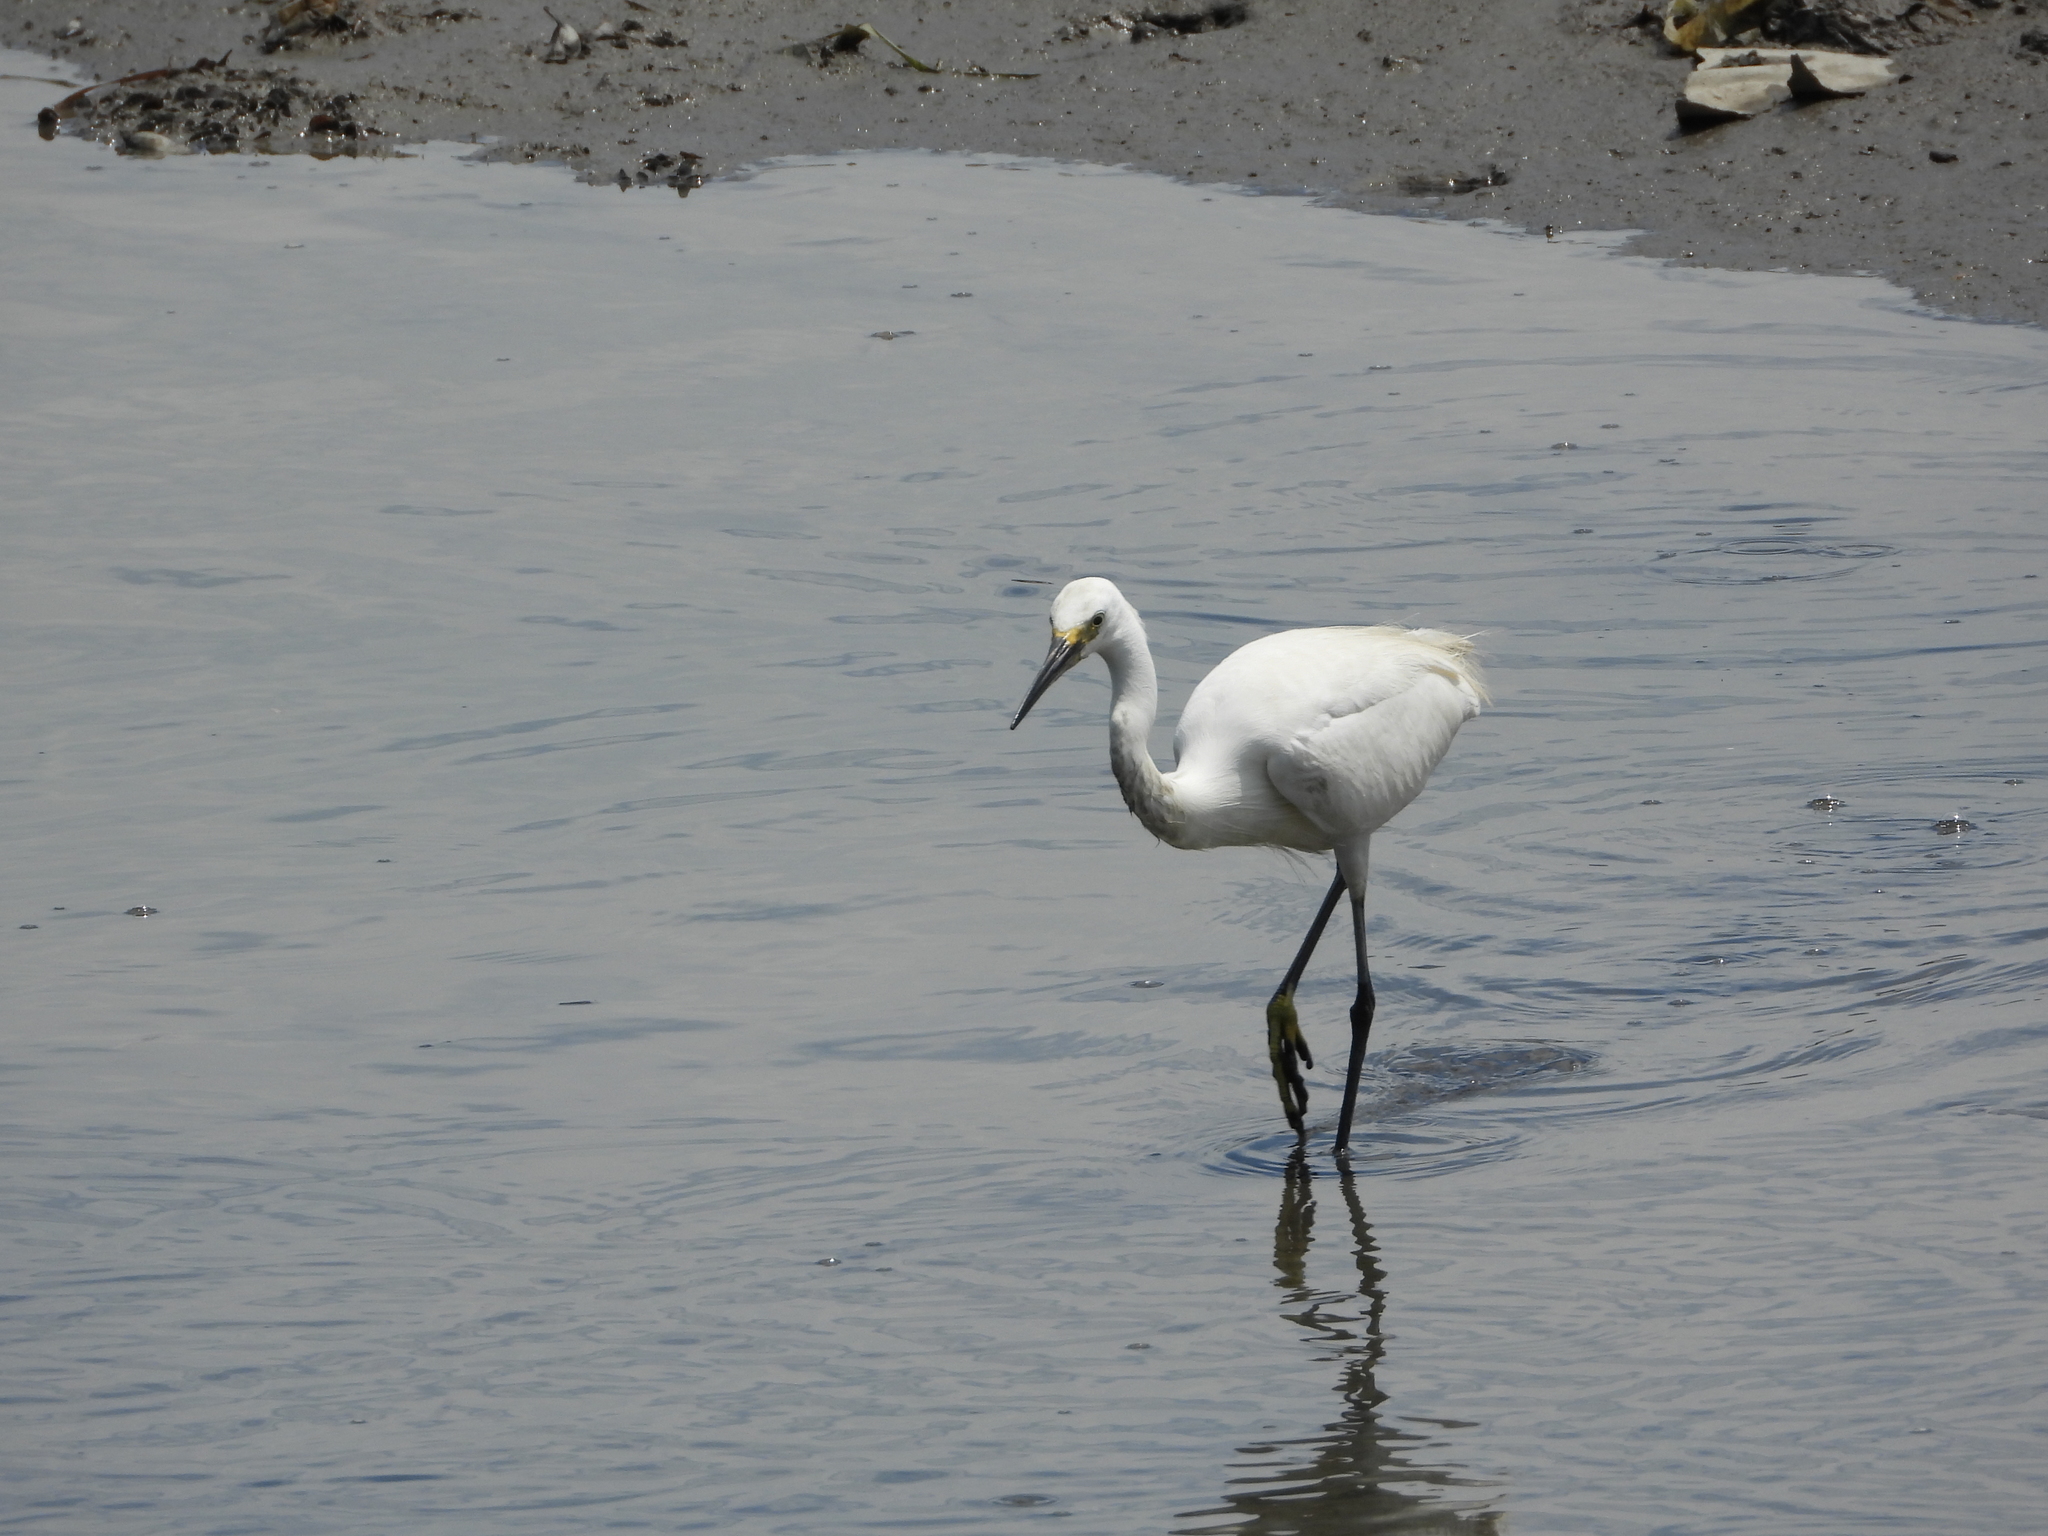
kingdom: Animalia
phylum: Chordata
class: Aves
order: Pelecaniformes
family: Ardeidae
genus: Egretta
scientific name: Egretta garzetta
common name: Little egret
